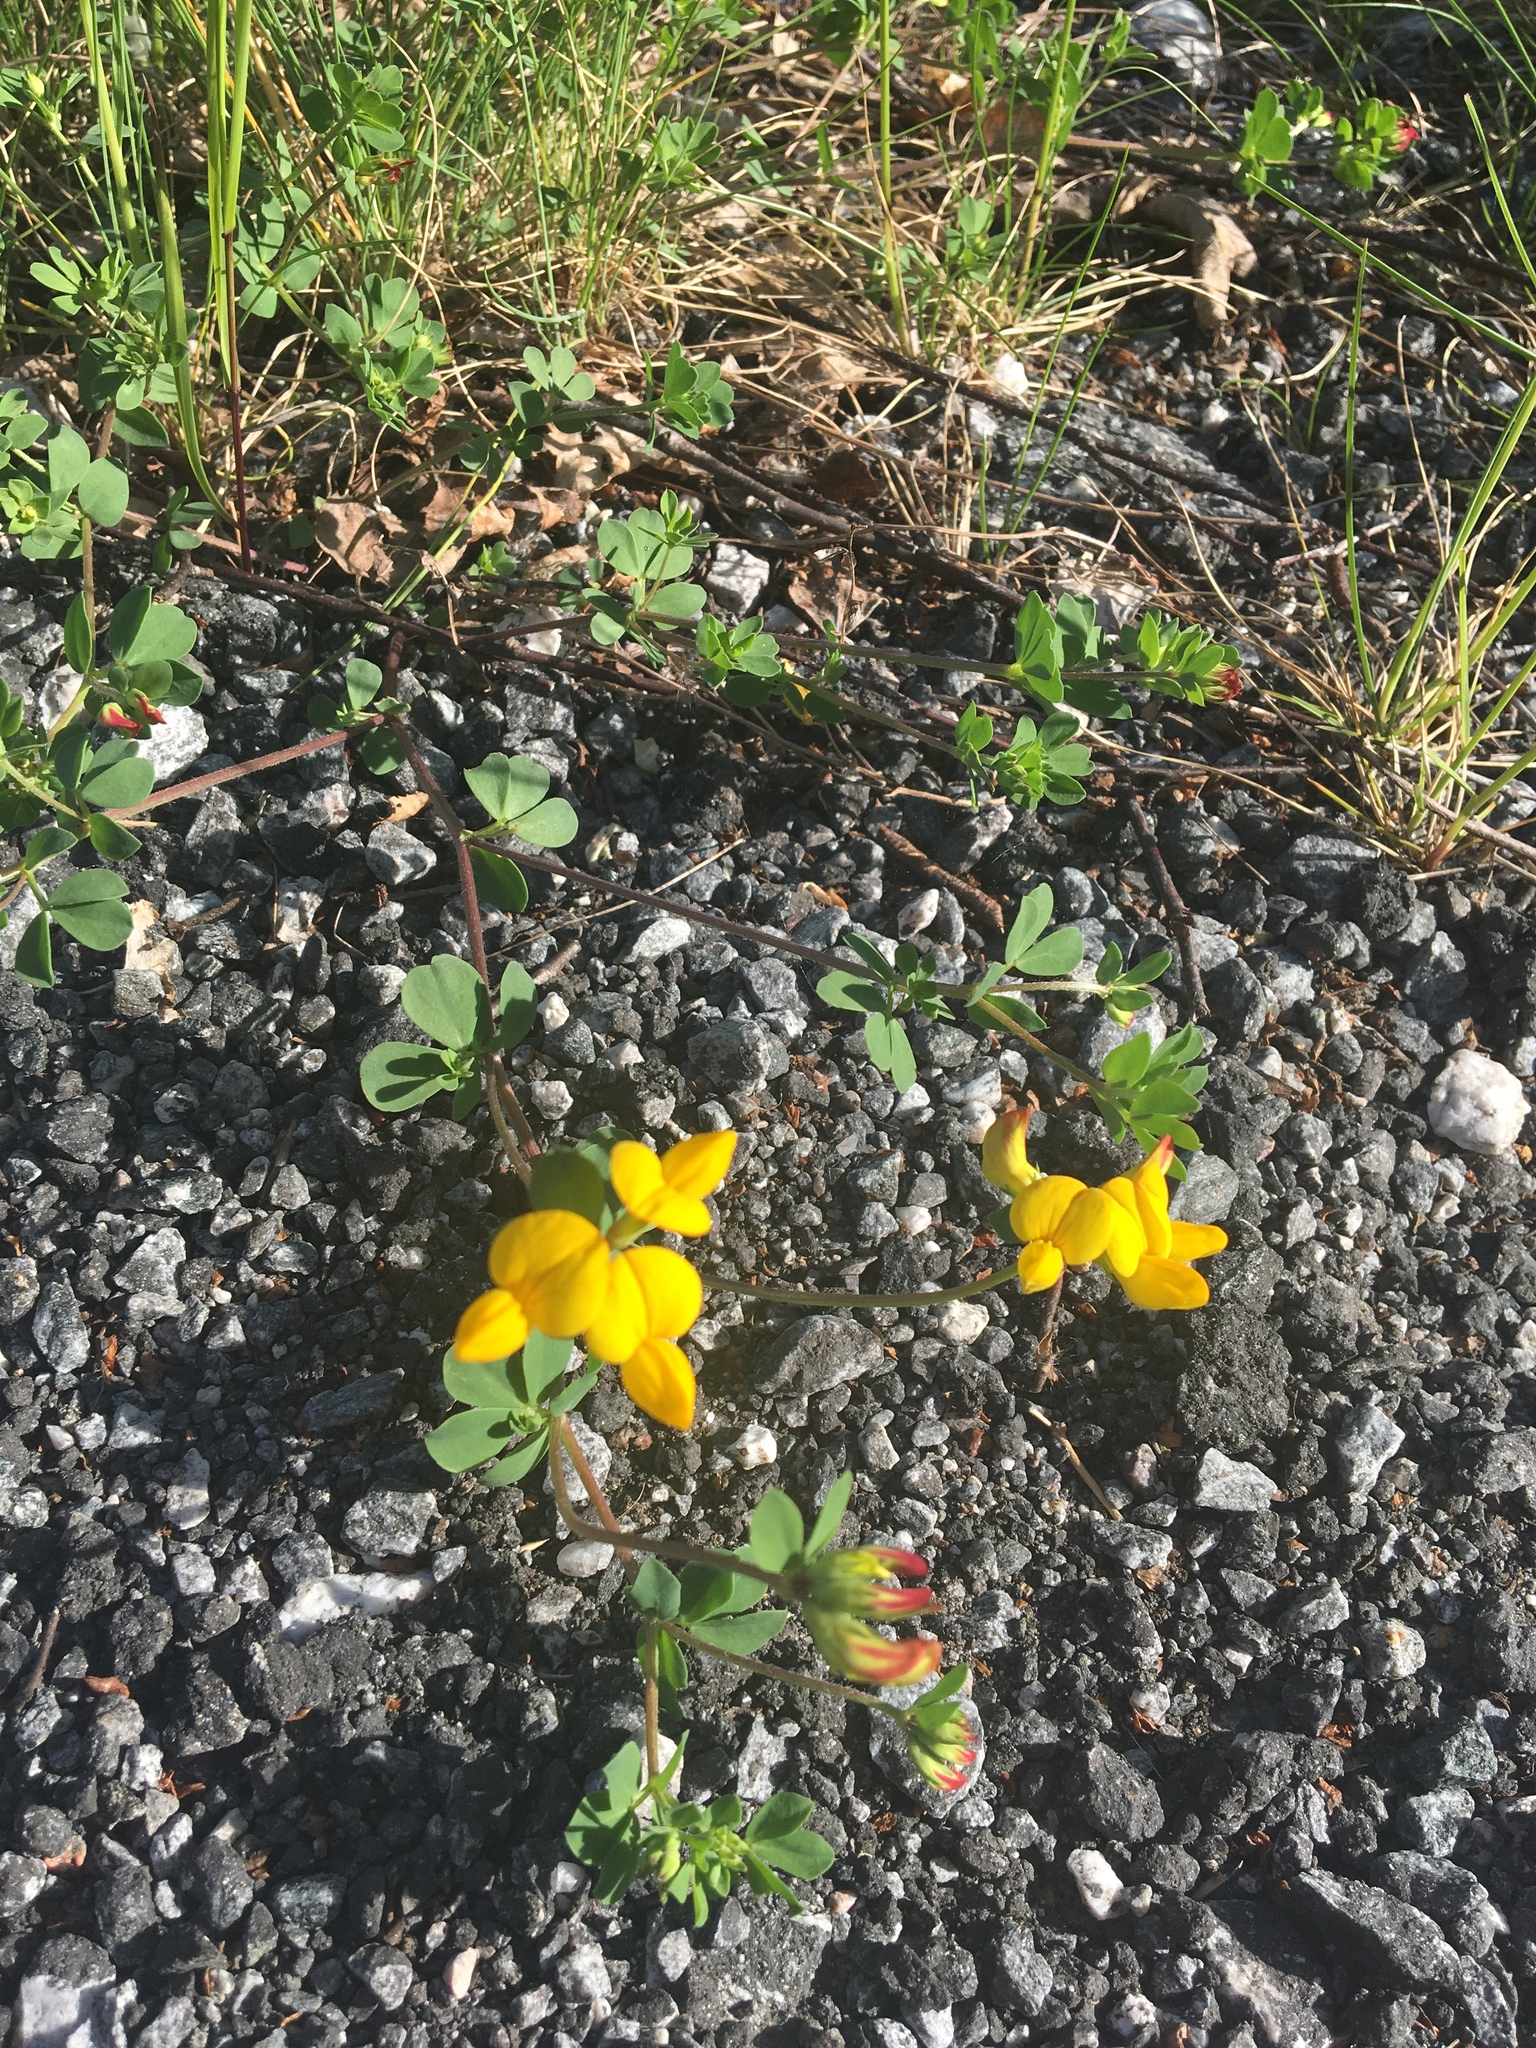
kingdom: Plantae
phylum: Tracheophyta
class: Magnoliopsida
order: Fabales
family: Fabaceae
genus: Lotus
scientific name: Lotus corniculatus
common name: Common bird's-foot-trefoil
